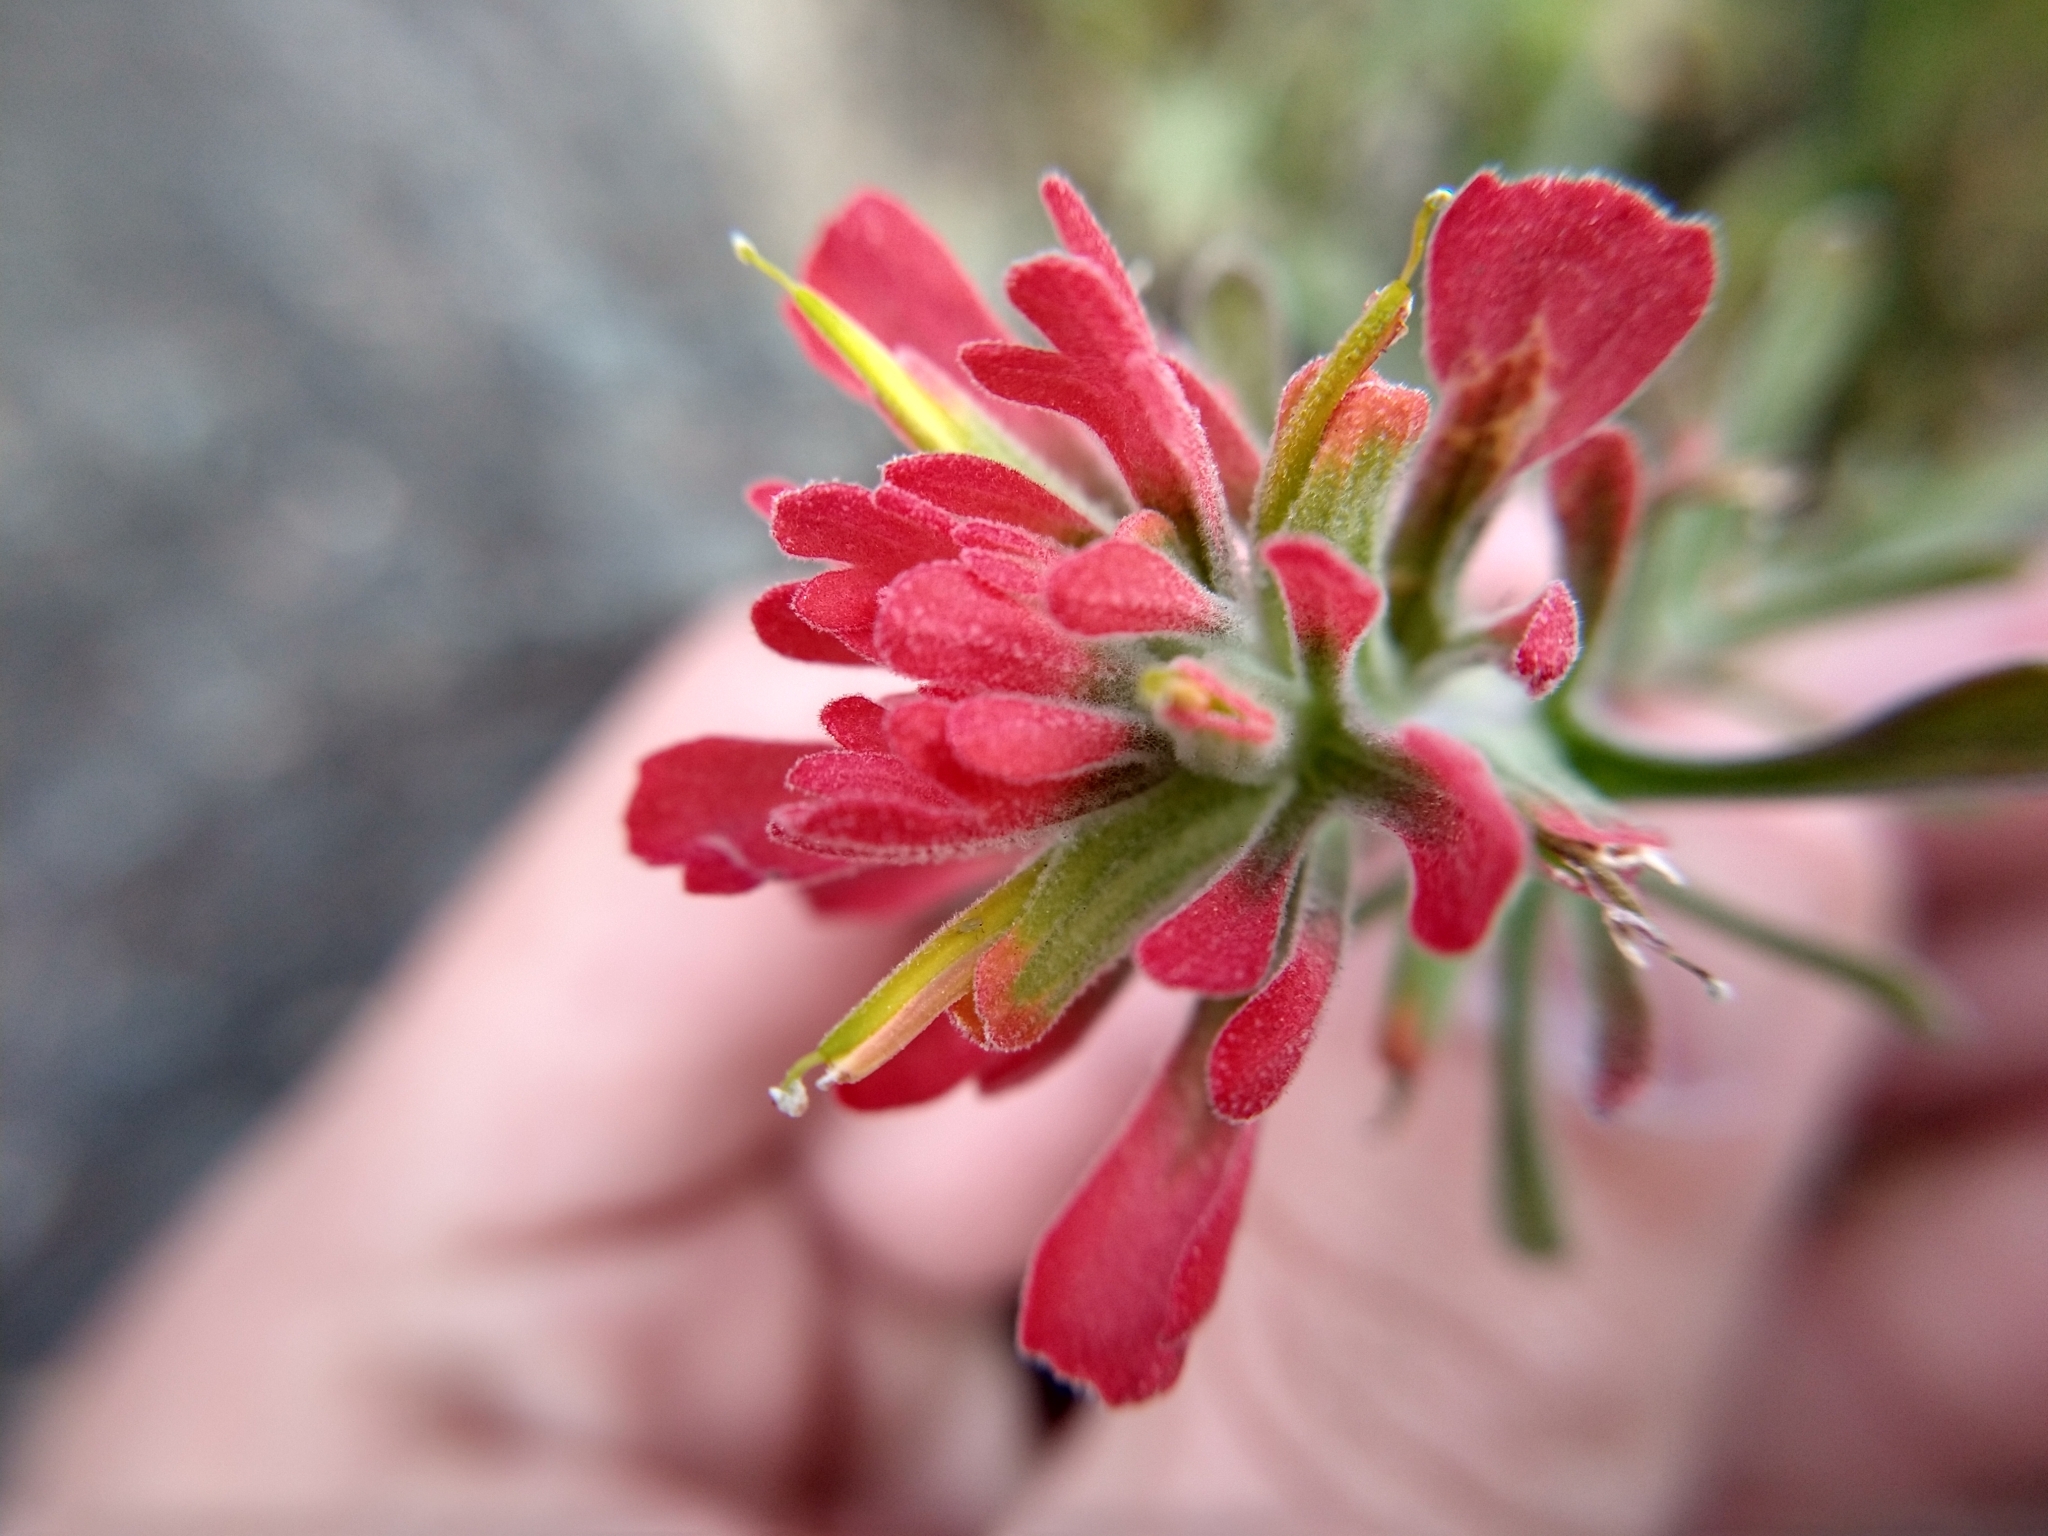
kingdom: Plantae
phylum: Tracheophyta
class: Magnoliopsida
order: Lamiales
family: Orobanchaceae
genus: Castilleja
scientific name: Castilleja foliolosa
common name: Woolly indian paintbrush
